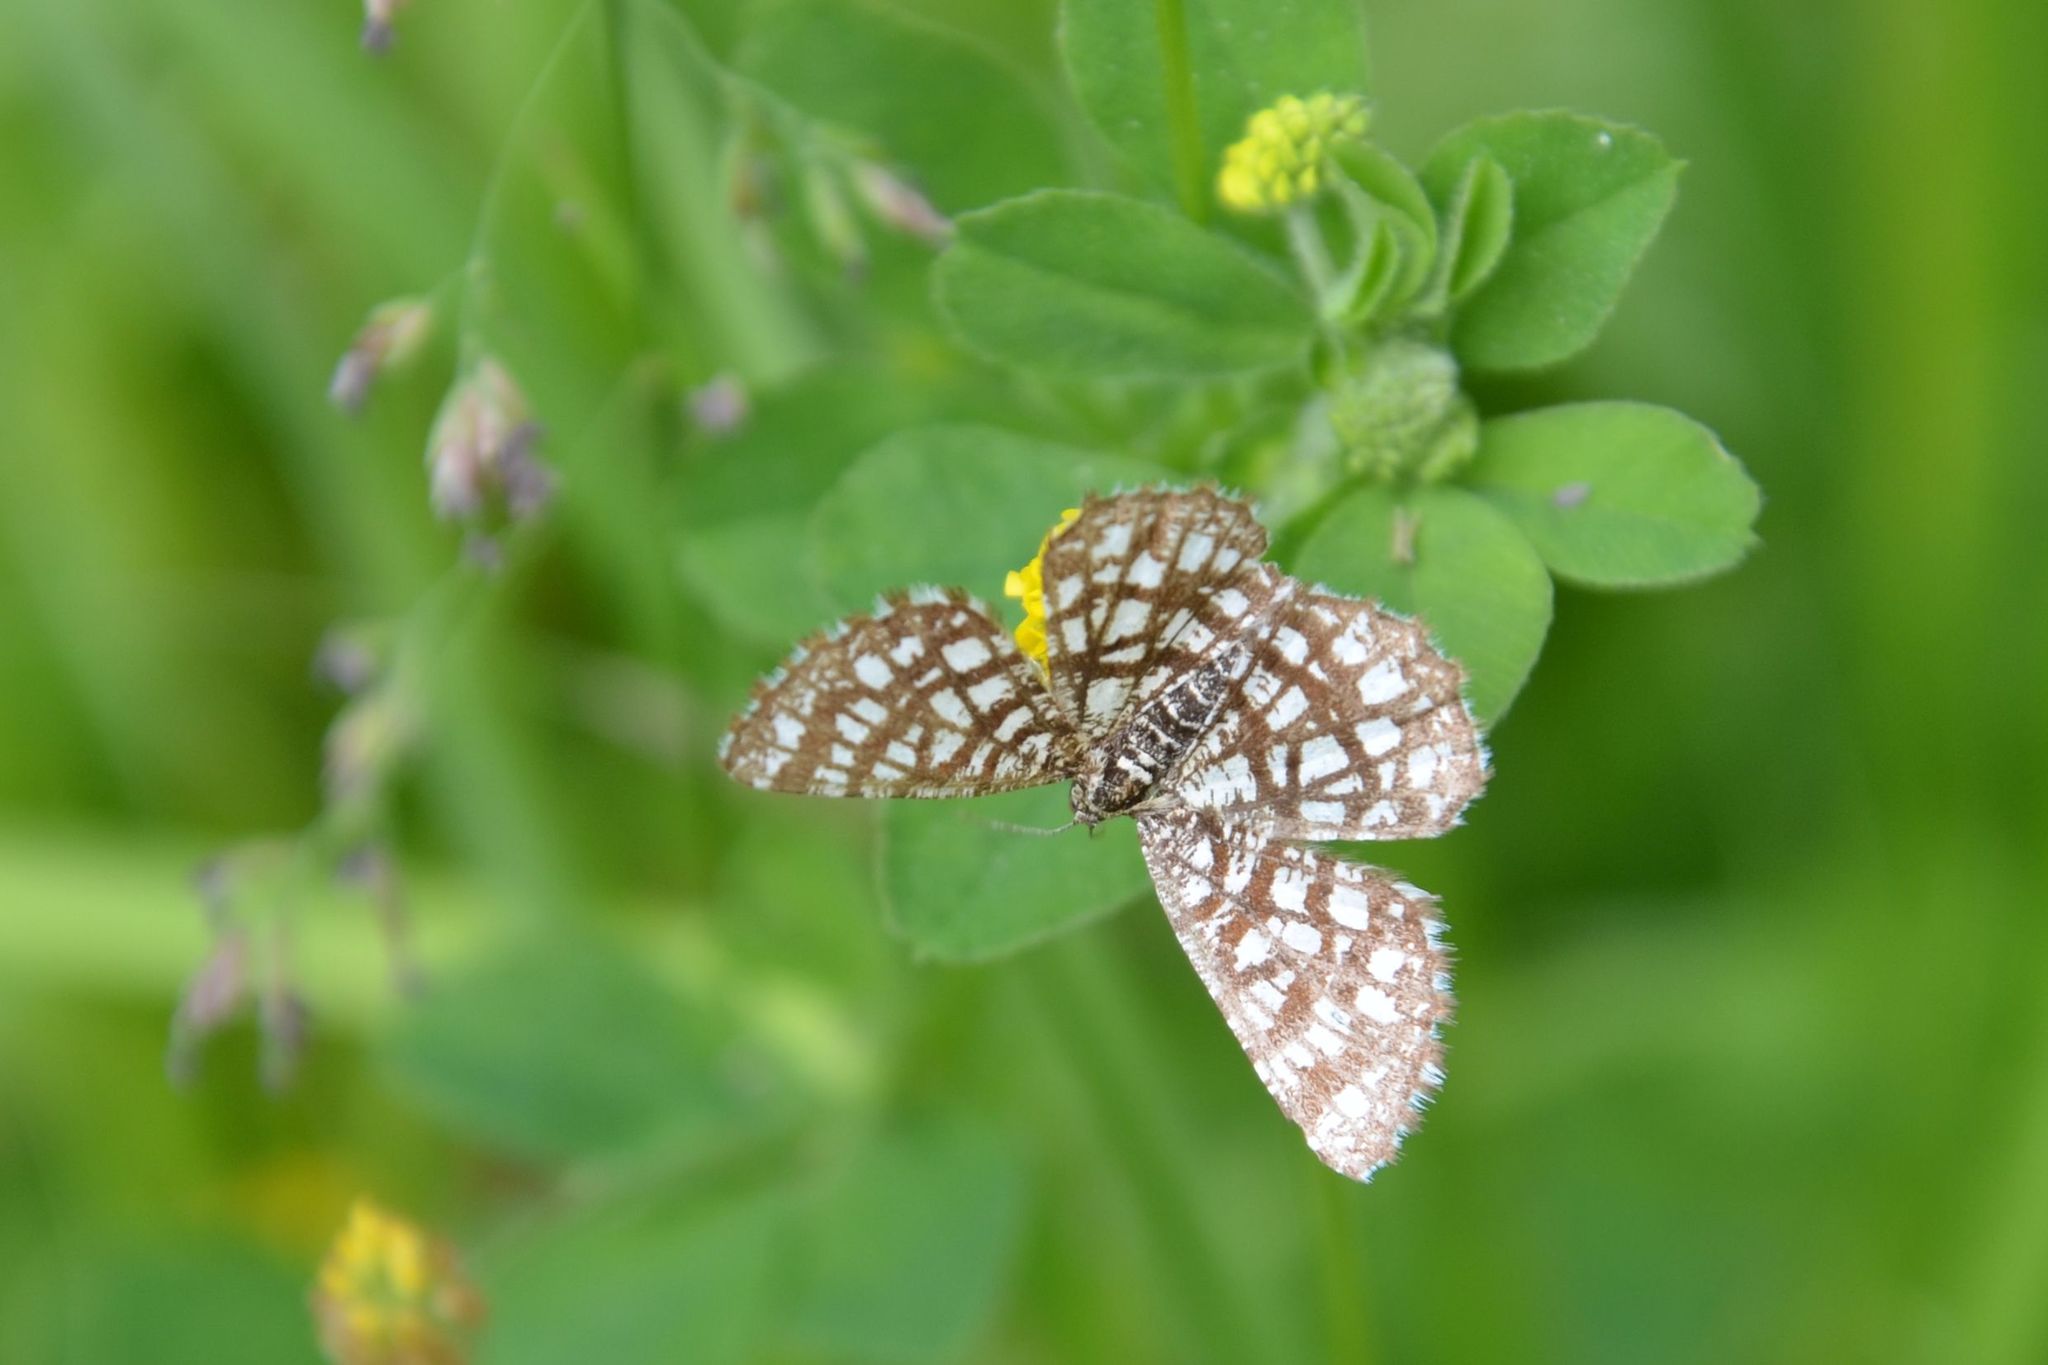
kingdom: Animalia
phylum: Arthropoda
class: Insecta
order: Lepidoptera
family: Geometridae
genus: Chiasmia
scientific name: Chiasmia clathrata
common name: Latticed heath
